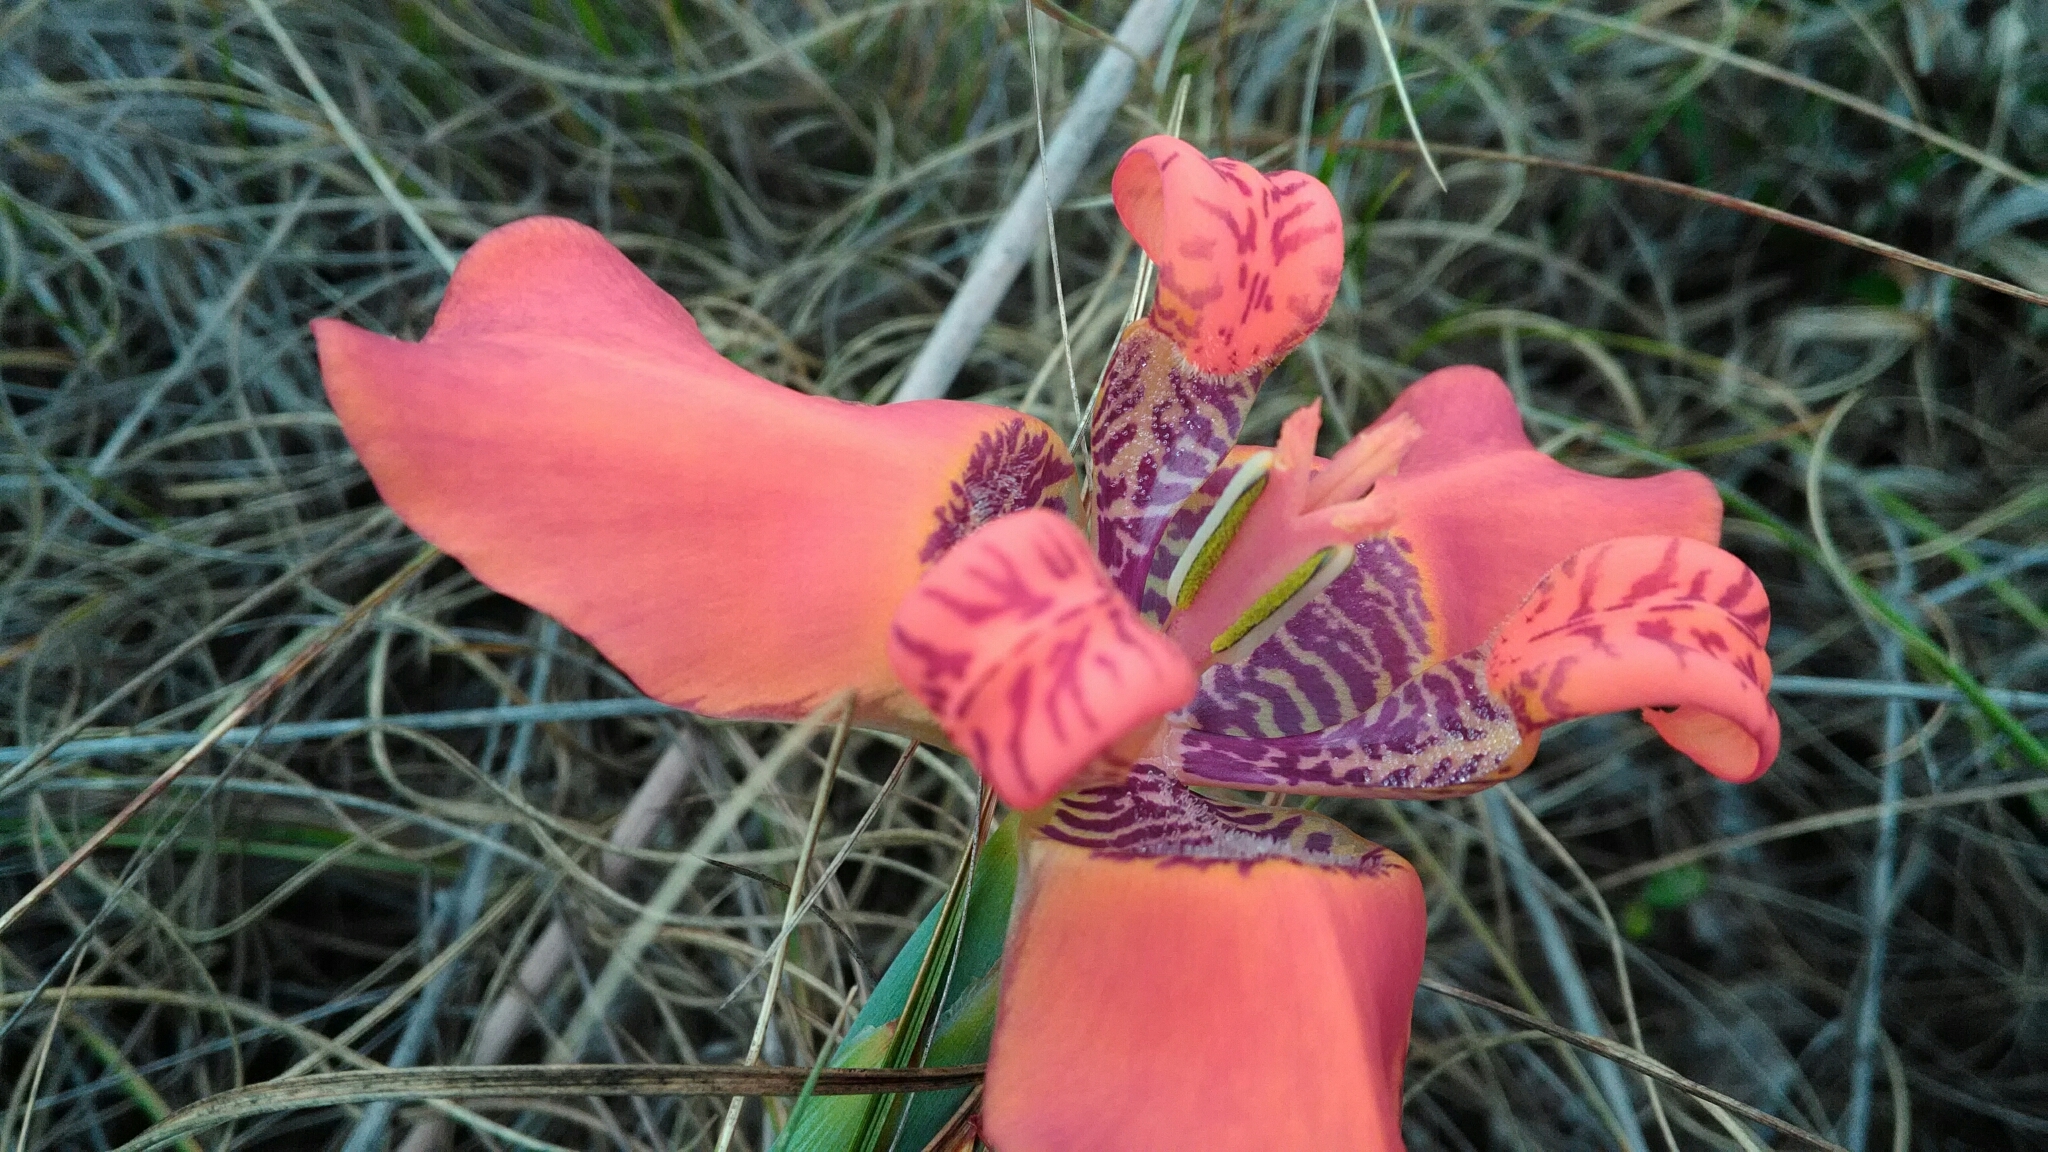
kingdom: Plantae
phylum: Tracheophyta
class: Liliopsida
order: Asparagales
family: Iridaceae
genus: Trimezia
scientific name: Trimezia juncifolia
